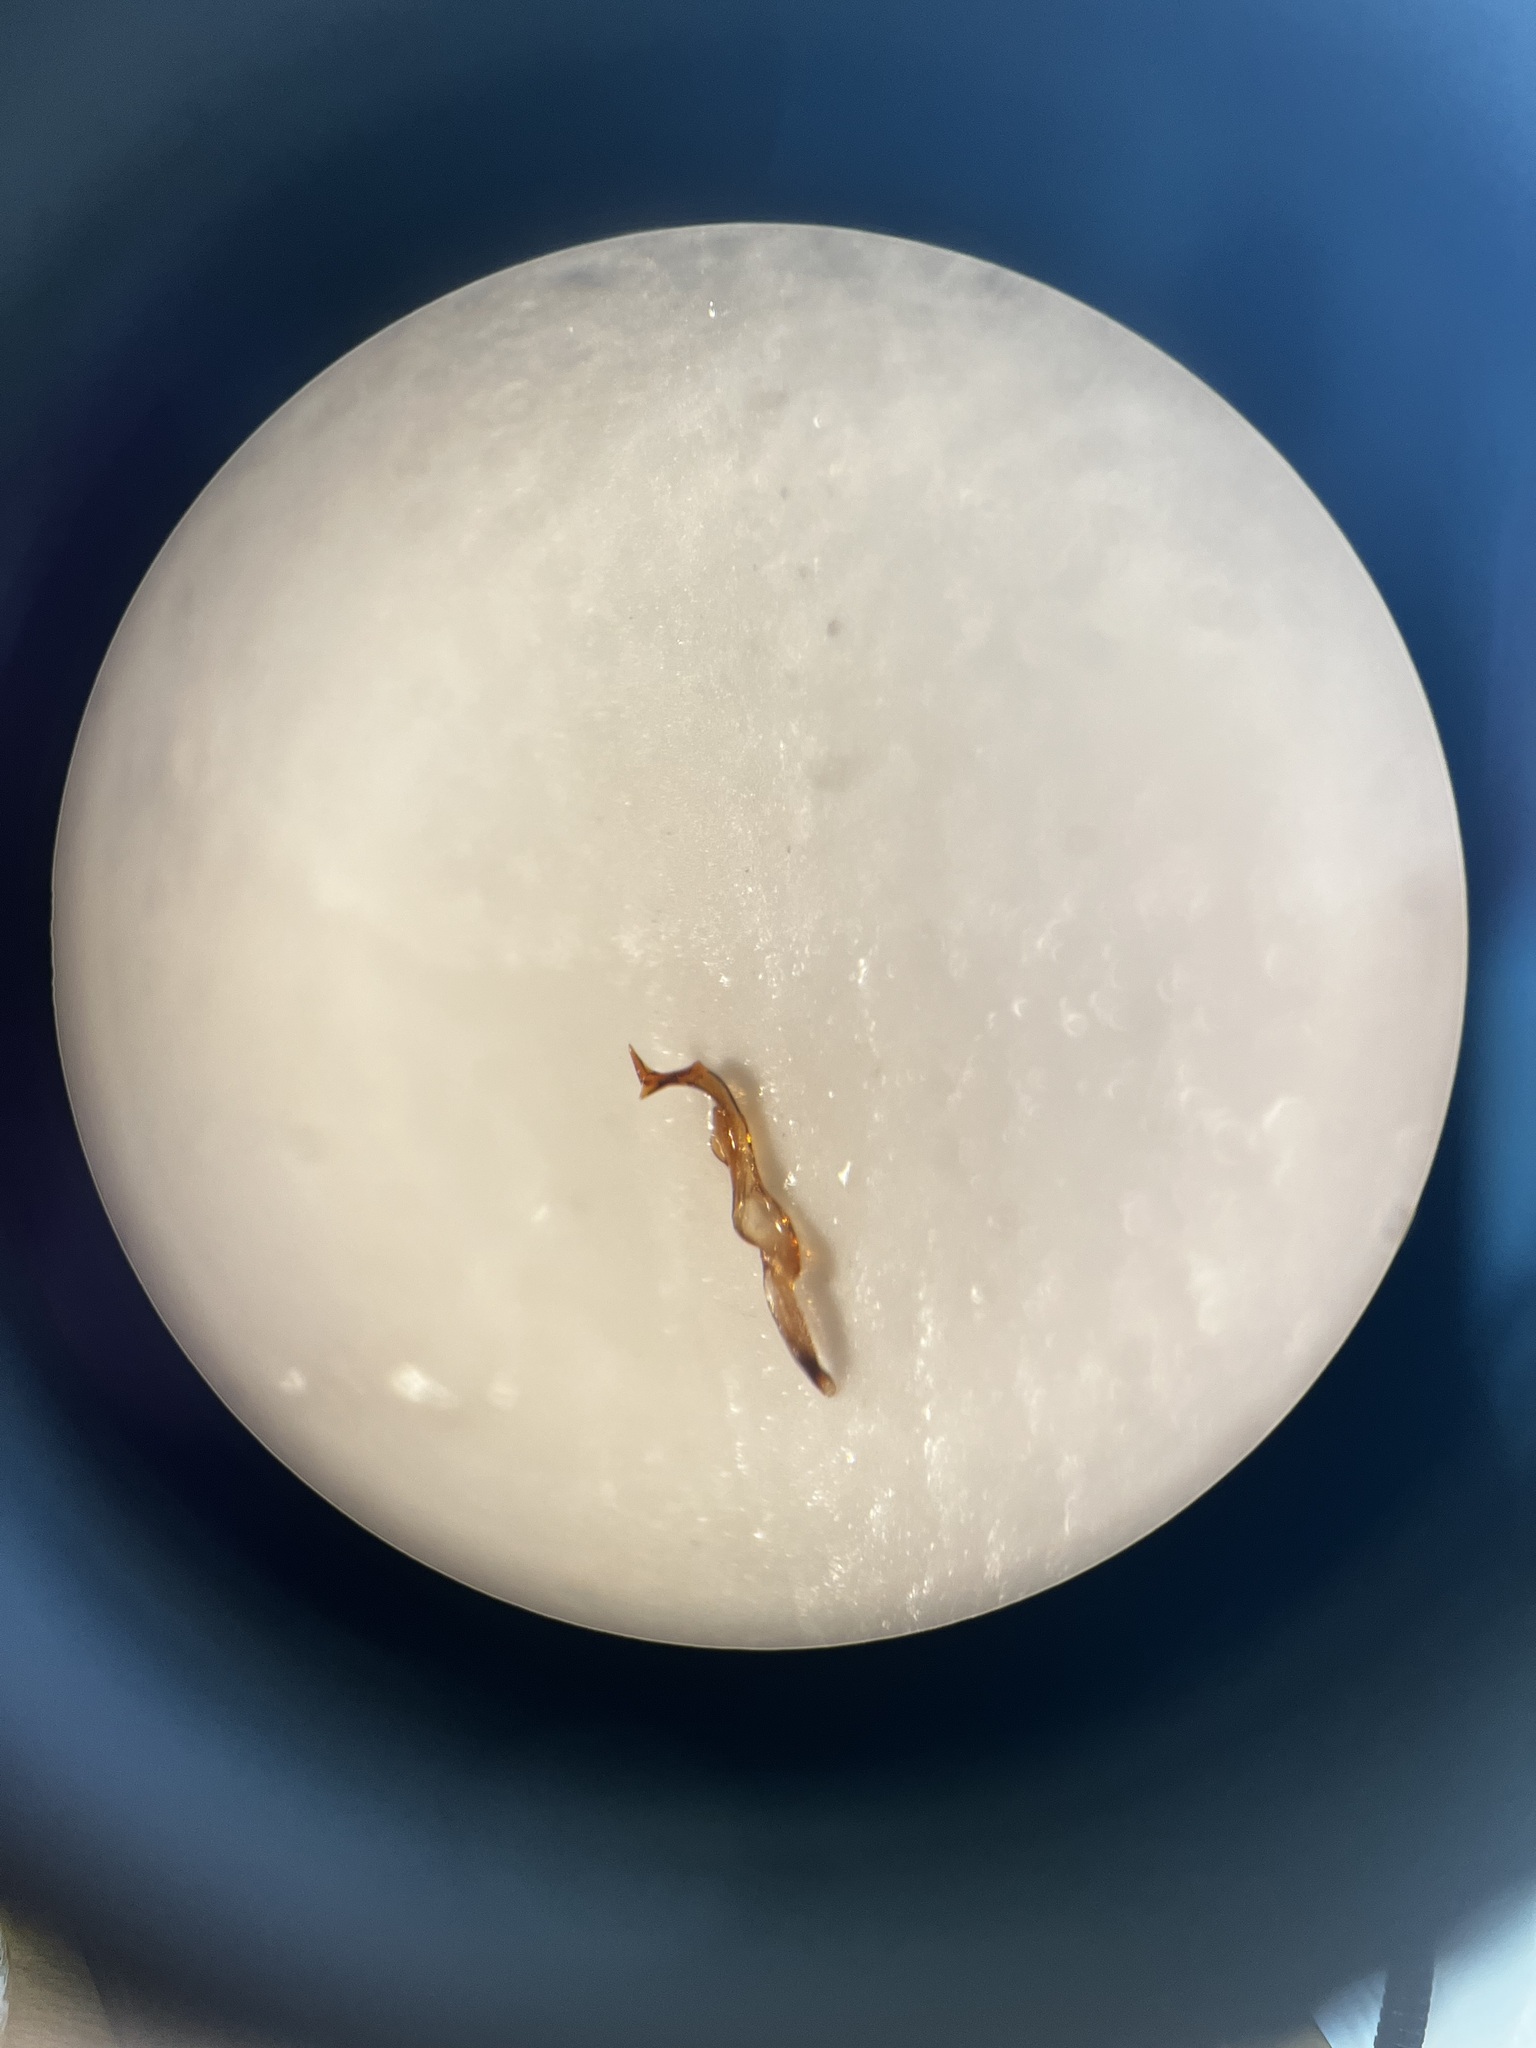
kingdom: Animalia
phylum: Arthropoda
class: Insecta
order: Hemiptera
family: Cicadellidae
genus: Arboridia
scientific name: Arboridia velata
